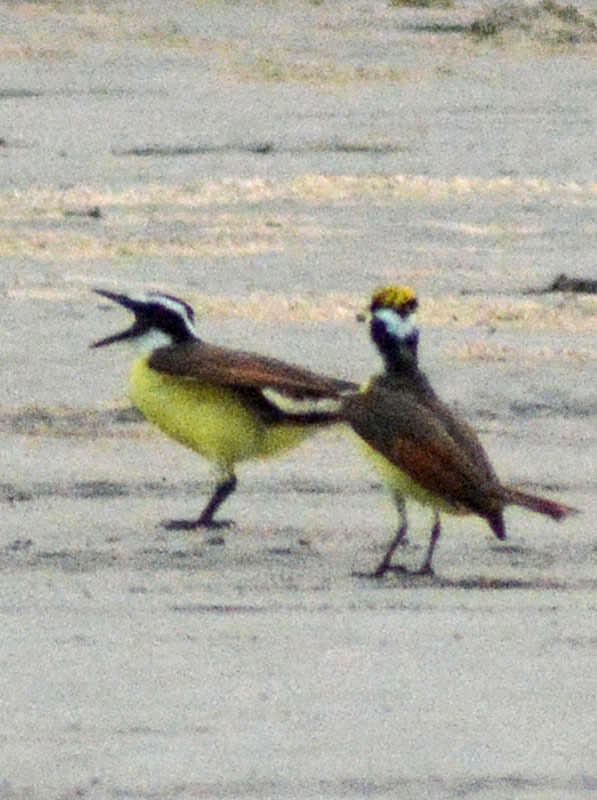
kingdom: Animalia
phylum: Chordata
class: Aves
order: Passeriformes
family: Tyrannidae
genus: Pitangus
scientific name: Pitangus sulphuratus
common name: Great kiskadee
